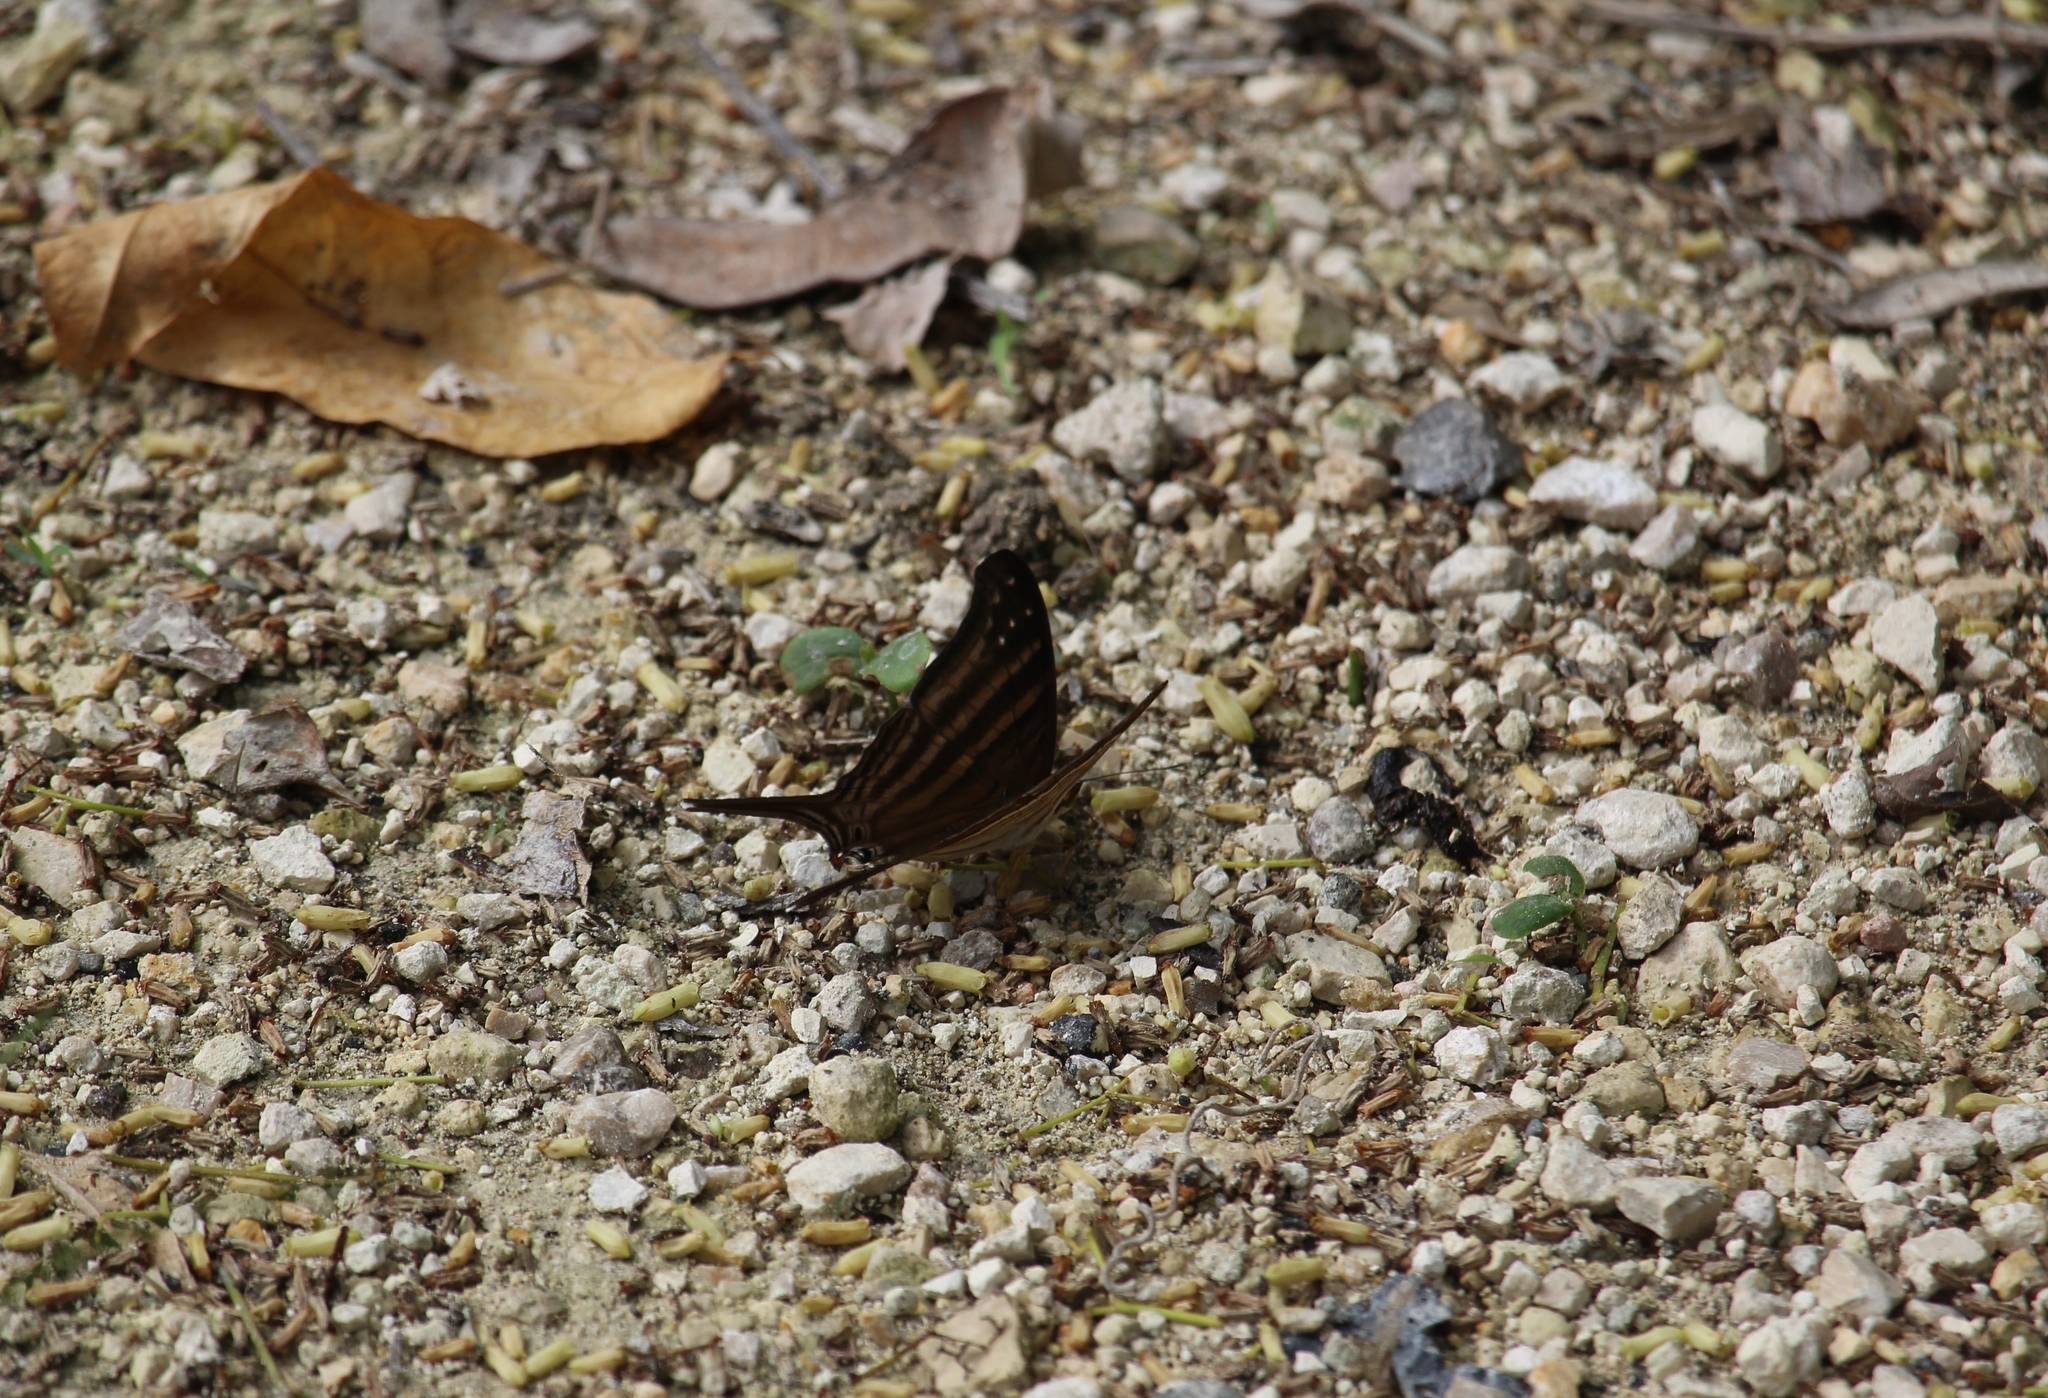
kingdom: Animalia
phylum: Arthropoda
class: Insecta
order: Lepidoptera
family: Nymphalidae
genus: Marpesia
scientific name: Marpesia chiron
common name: Many-banded daggerwing
